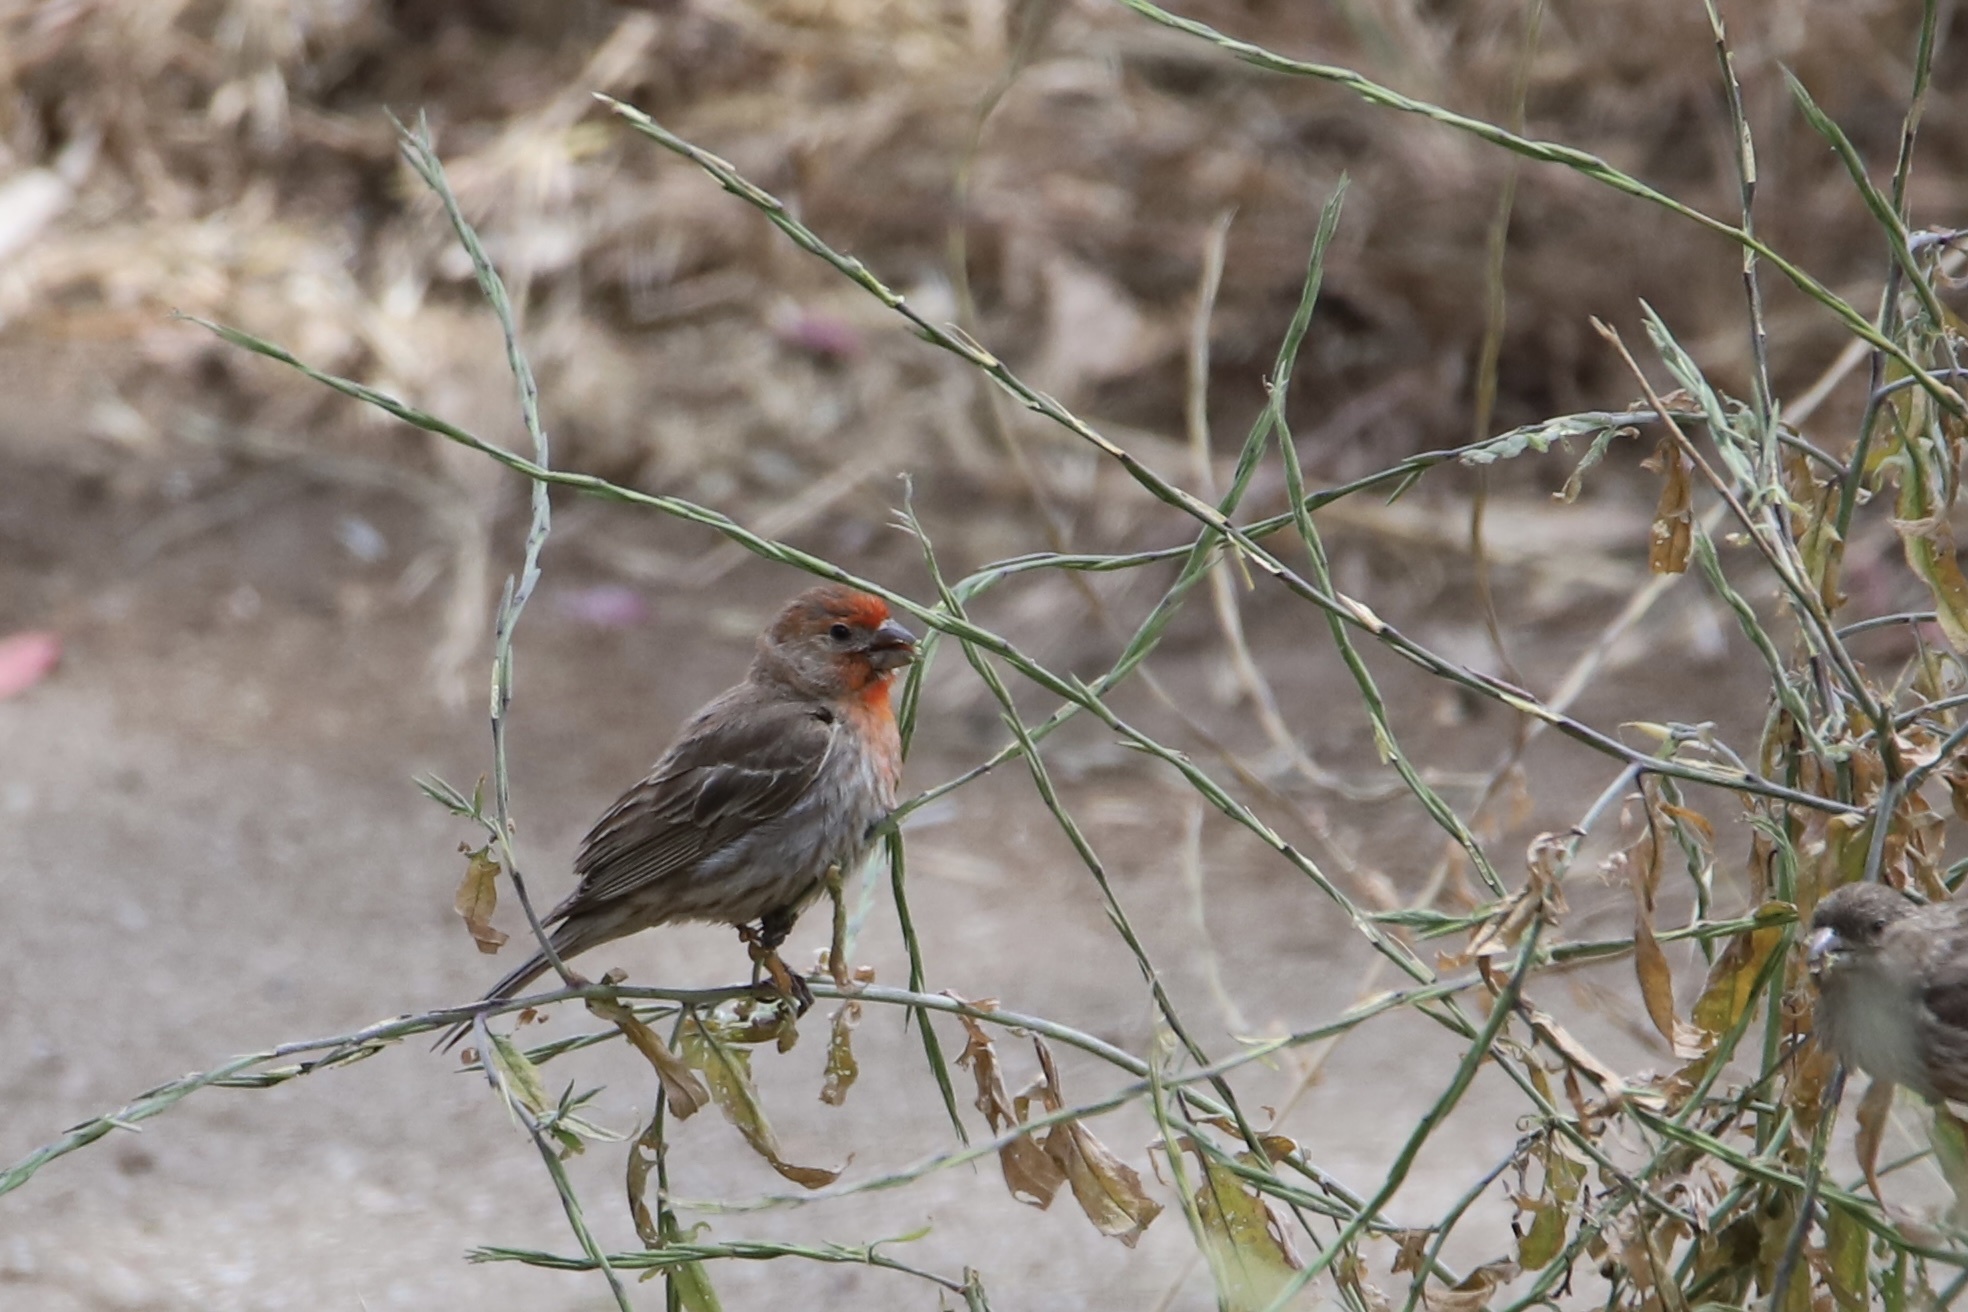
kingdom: Animalia
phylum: Chordata
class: Aves
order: Passeriformes
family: Fringillidae
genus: Haemorhous
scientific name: Haemorhous mexicanus
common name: House finch
